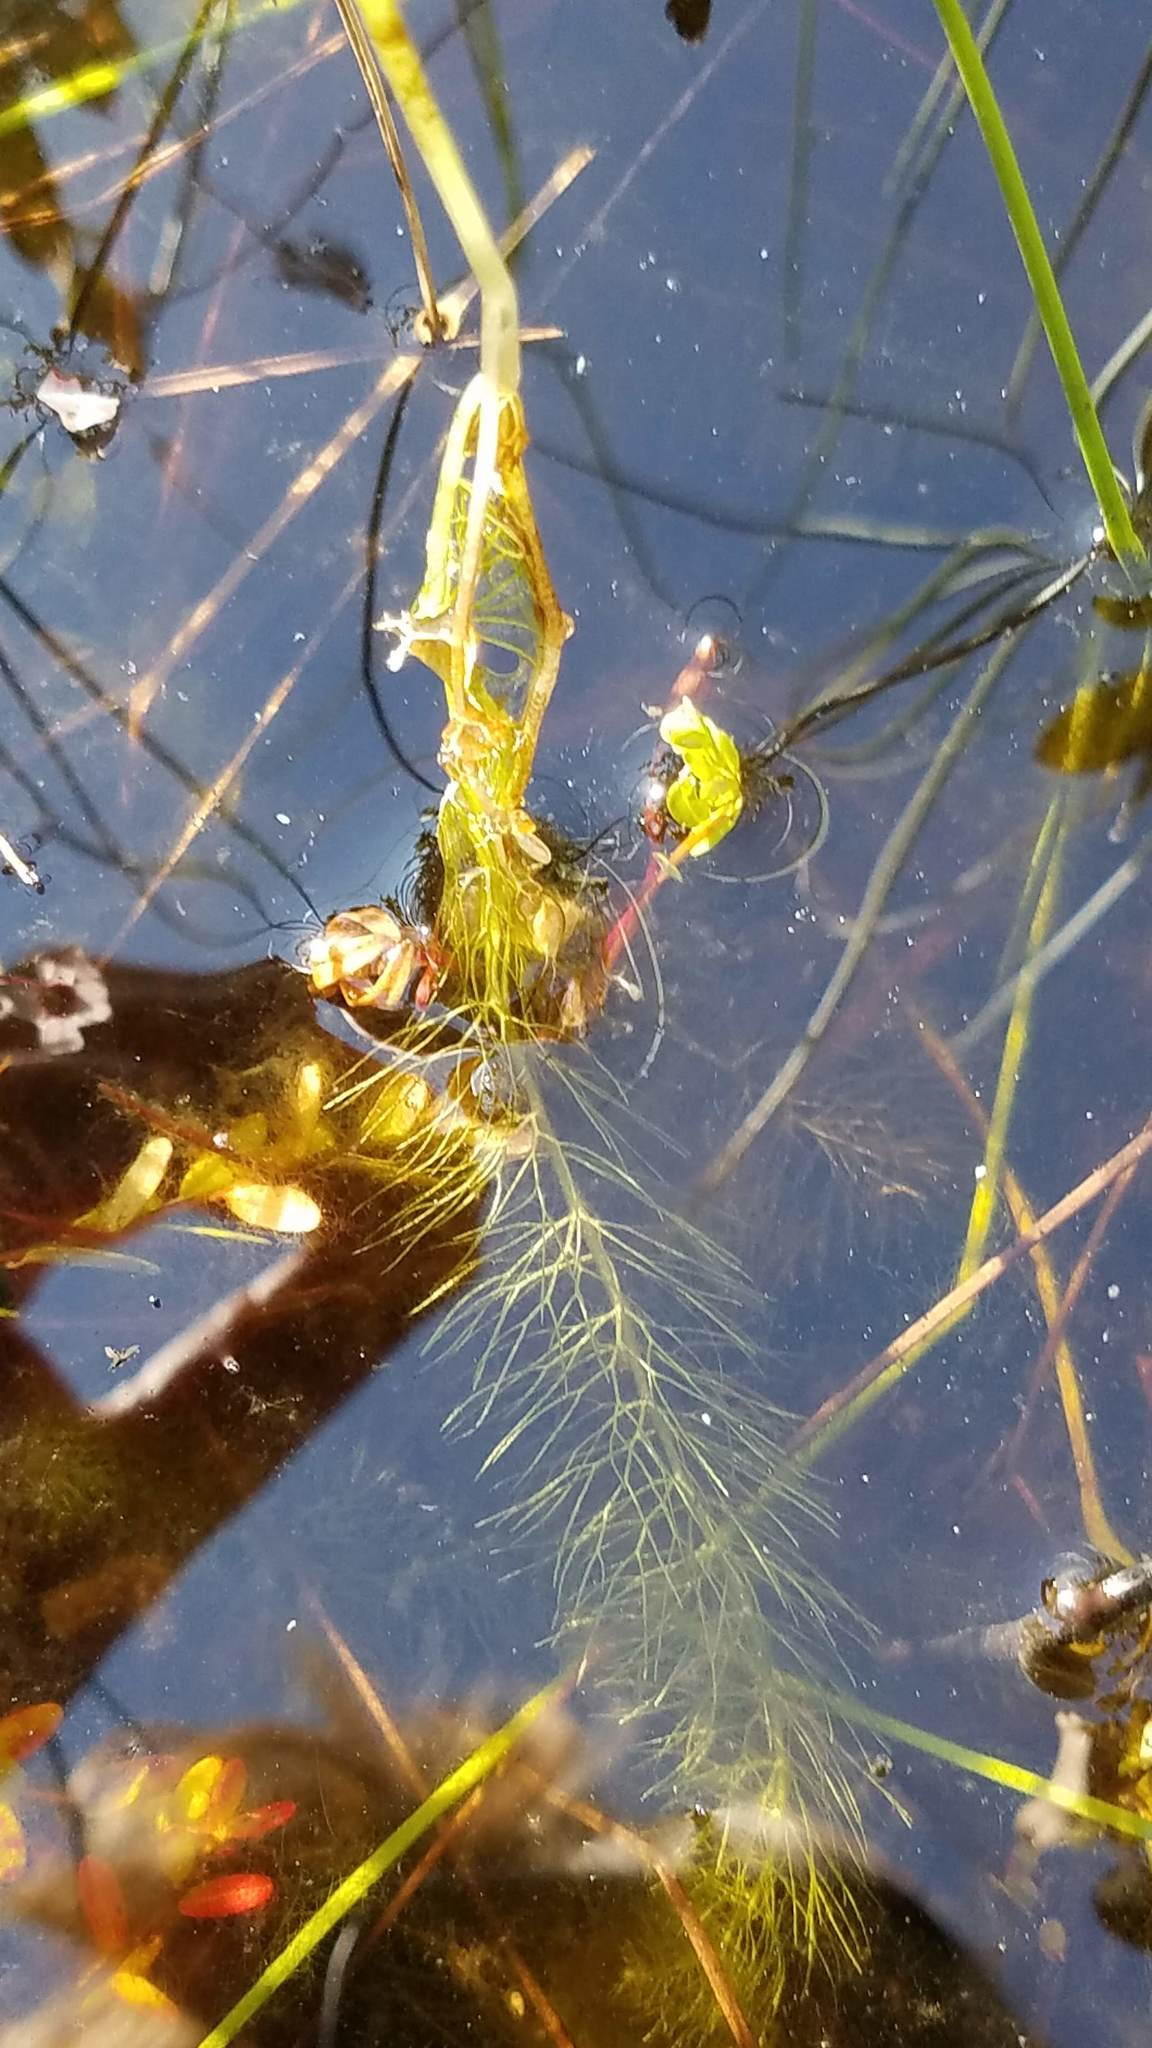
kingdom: Plantae
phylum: Tracheophyta
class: Magnoliopsida
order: Lamiales
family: Lentibulariaceae
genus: Utricularia
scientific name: Utricularia intermedia
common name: Intermediate bladderwort
